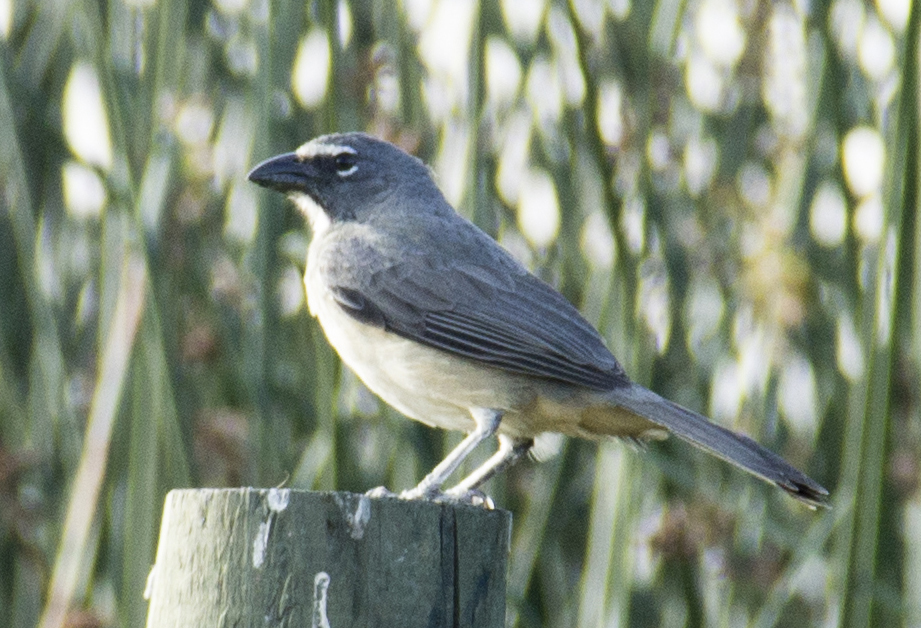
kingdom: Animalia
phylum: Chordata
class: Aves
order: Passeriformes
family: Thraupidae
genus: Saltator
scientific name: Saltator olivascens
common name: Caribbean grey saltator
